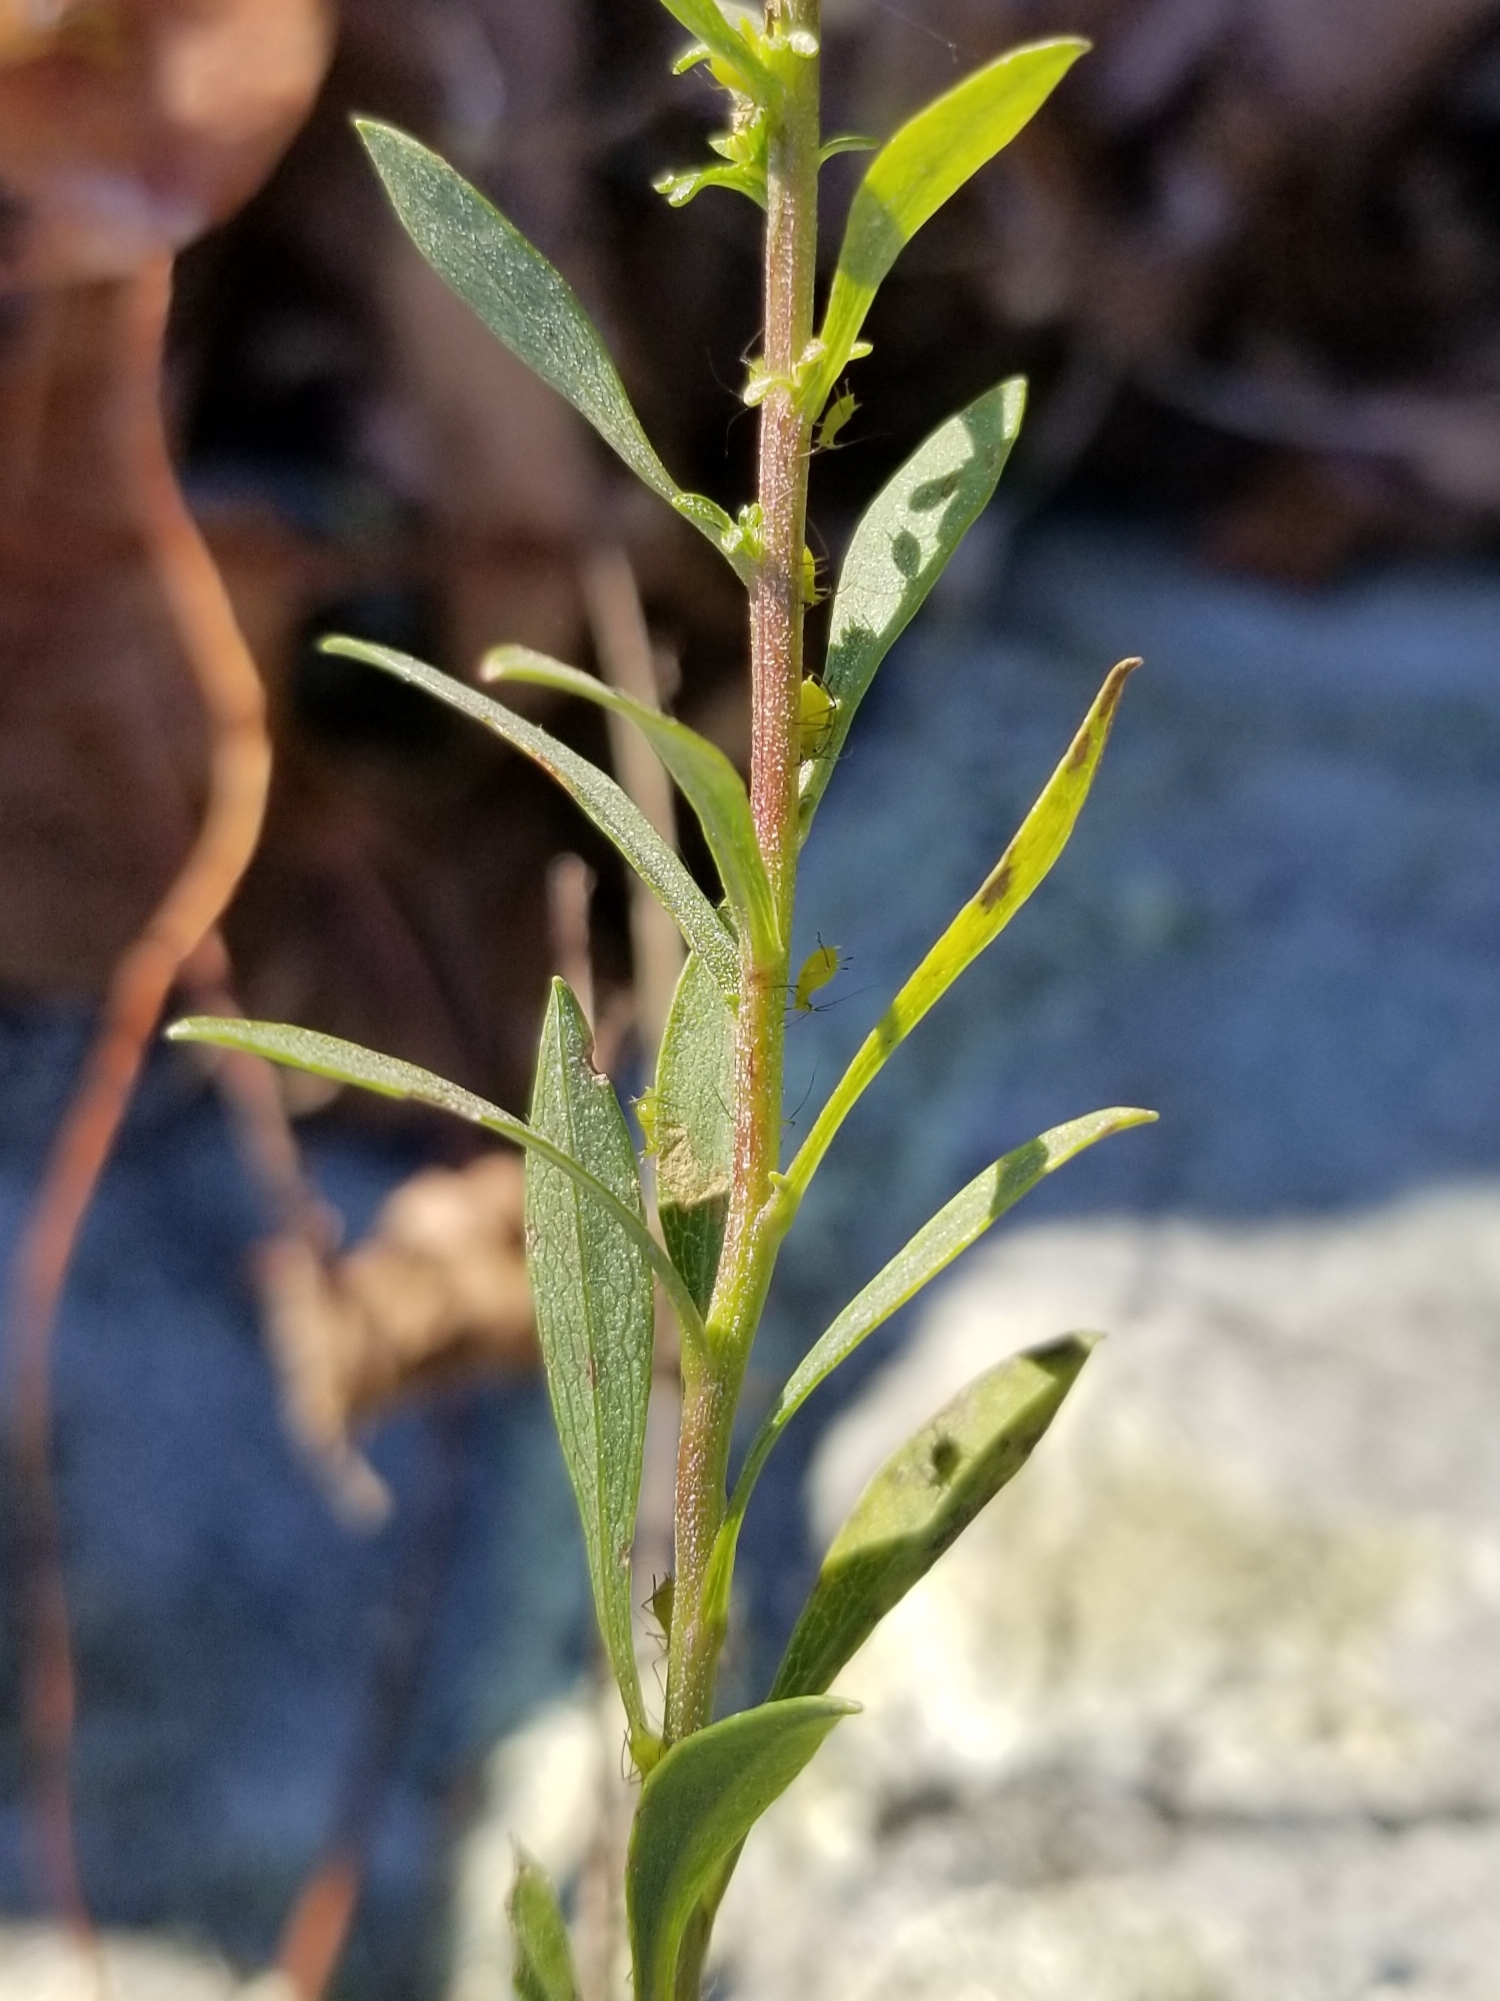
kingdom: Plantae
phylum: Tracheophyta
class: Magnoliopsida
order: Asterales
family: Asteraceae
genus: Solidago
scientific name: Solidago racemosa
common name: Lake ontario goldenrod
